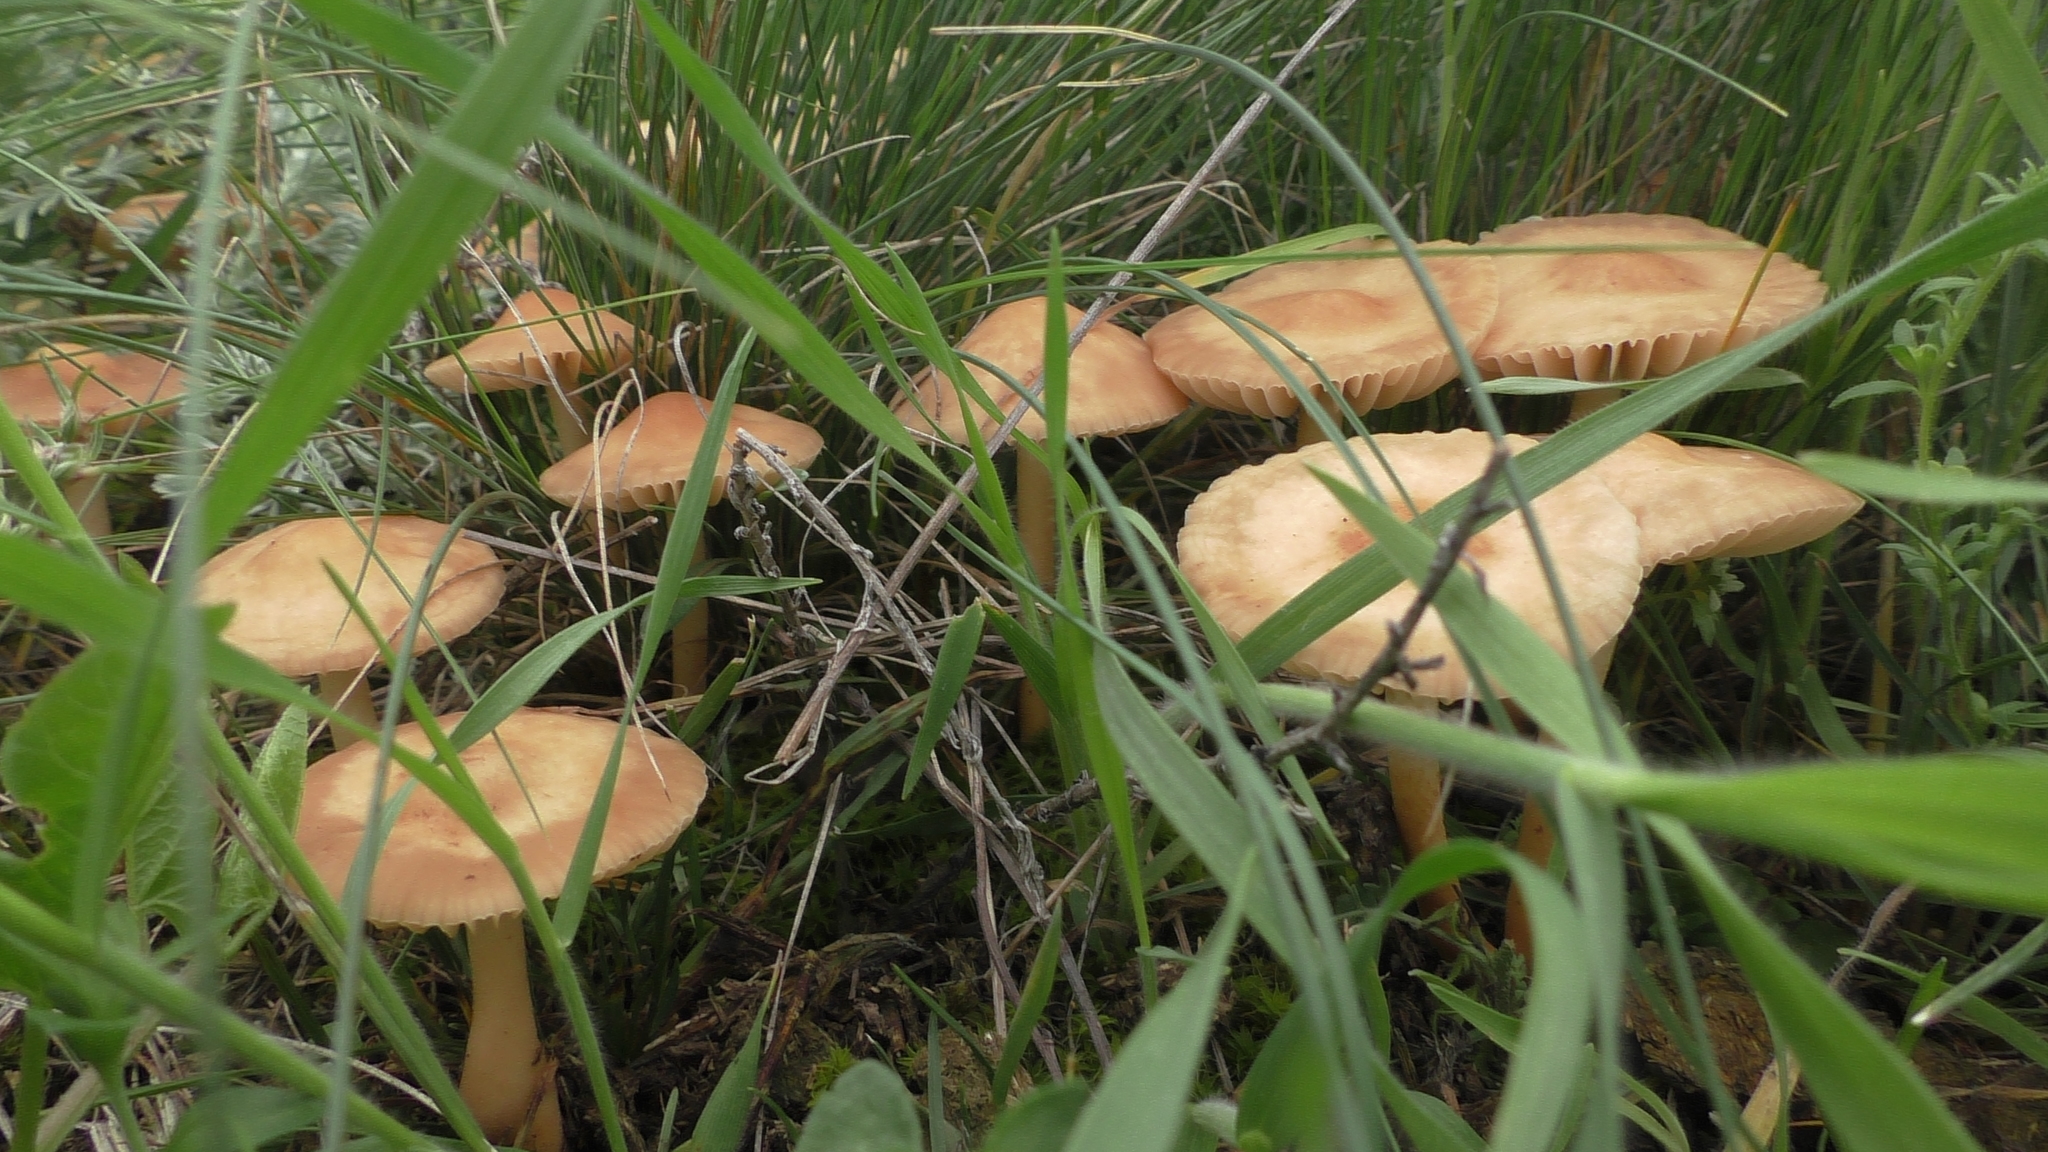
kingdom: Fungi
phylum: Basidiomycota
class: Agaricomycetes
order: Agaricales
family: Marasmiaceae
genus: Marasmius
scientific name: Marasmius oreades
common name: Fairy ring champignon
